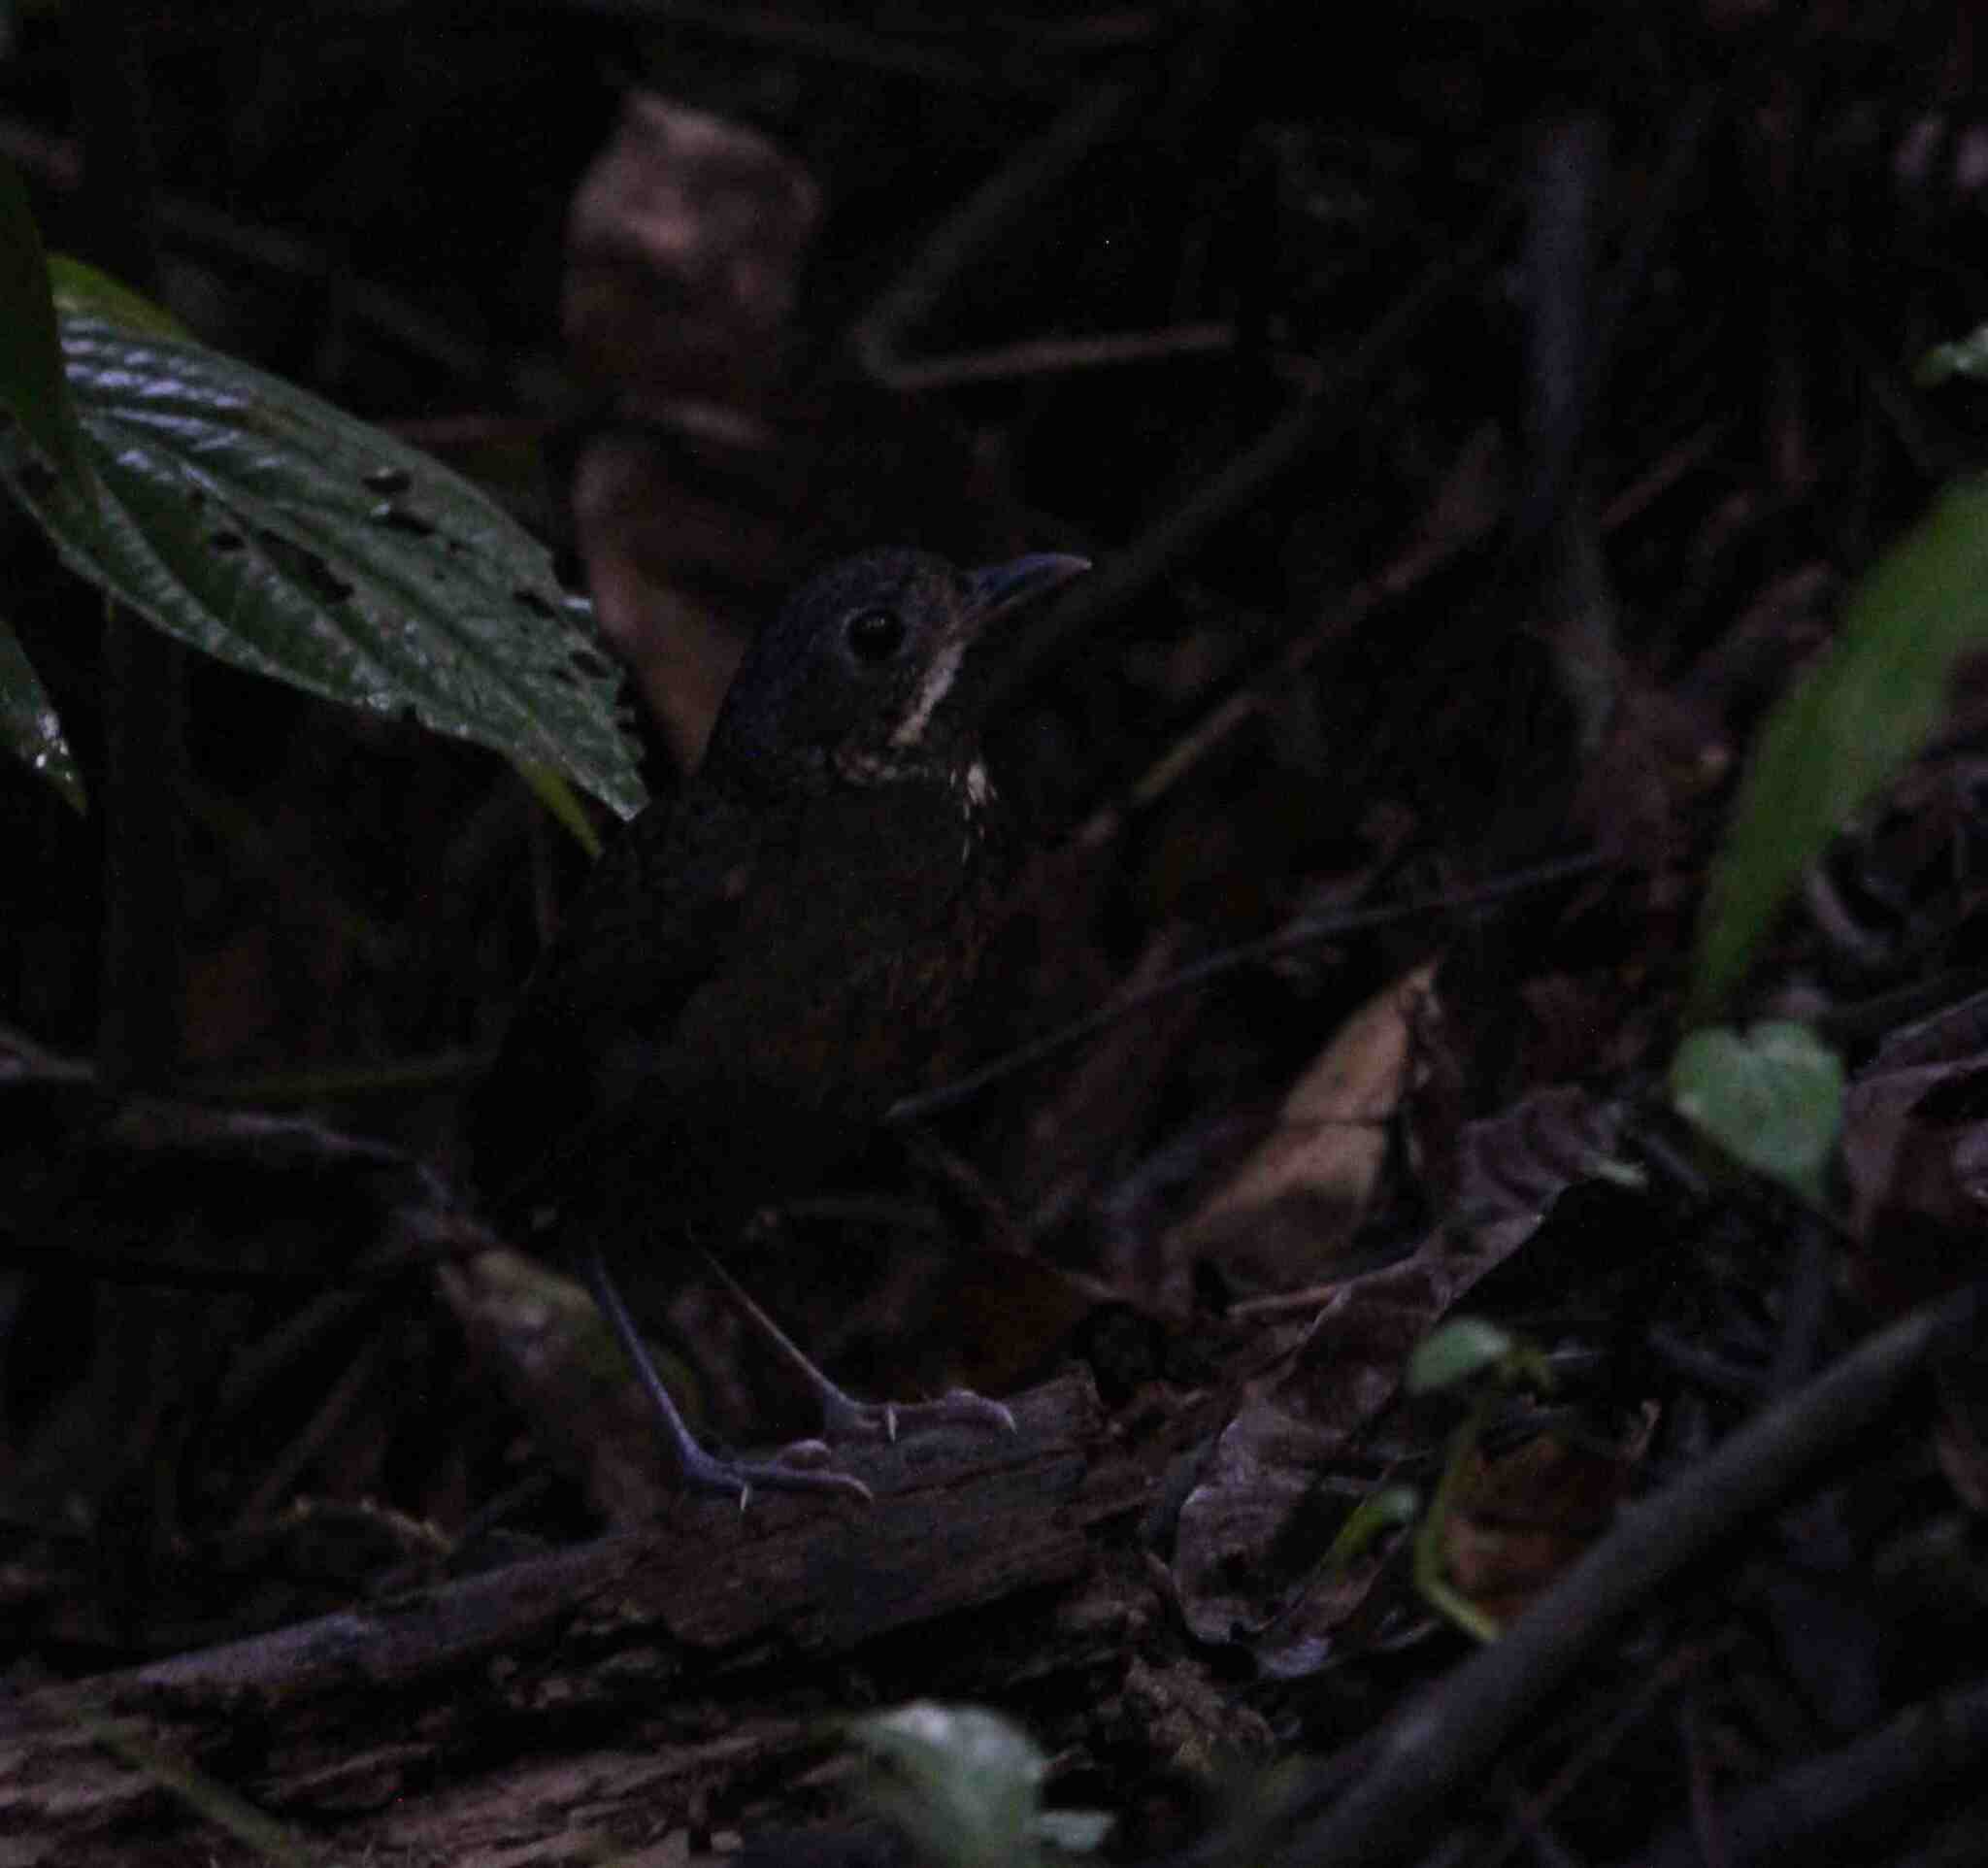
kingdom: Animalia
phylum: Chordata
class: Aves
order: Passeriformes
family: Grallariidae
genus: Grallaria
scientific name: Grallaria guatimalensis
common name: Scaled antpitta
